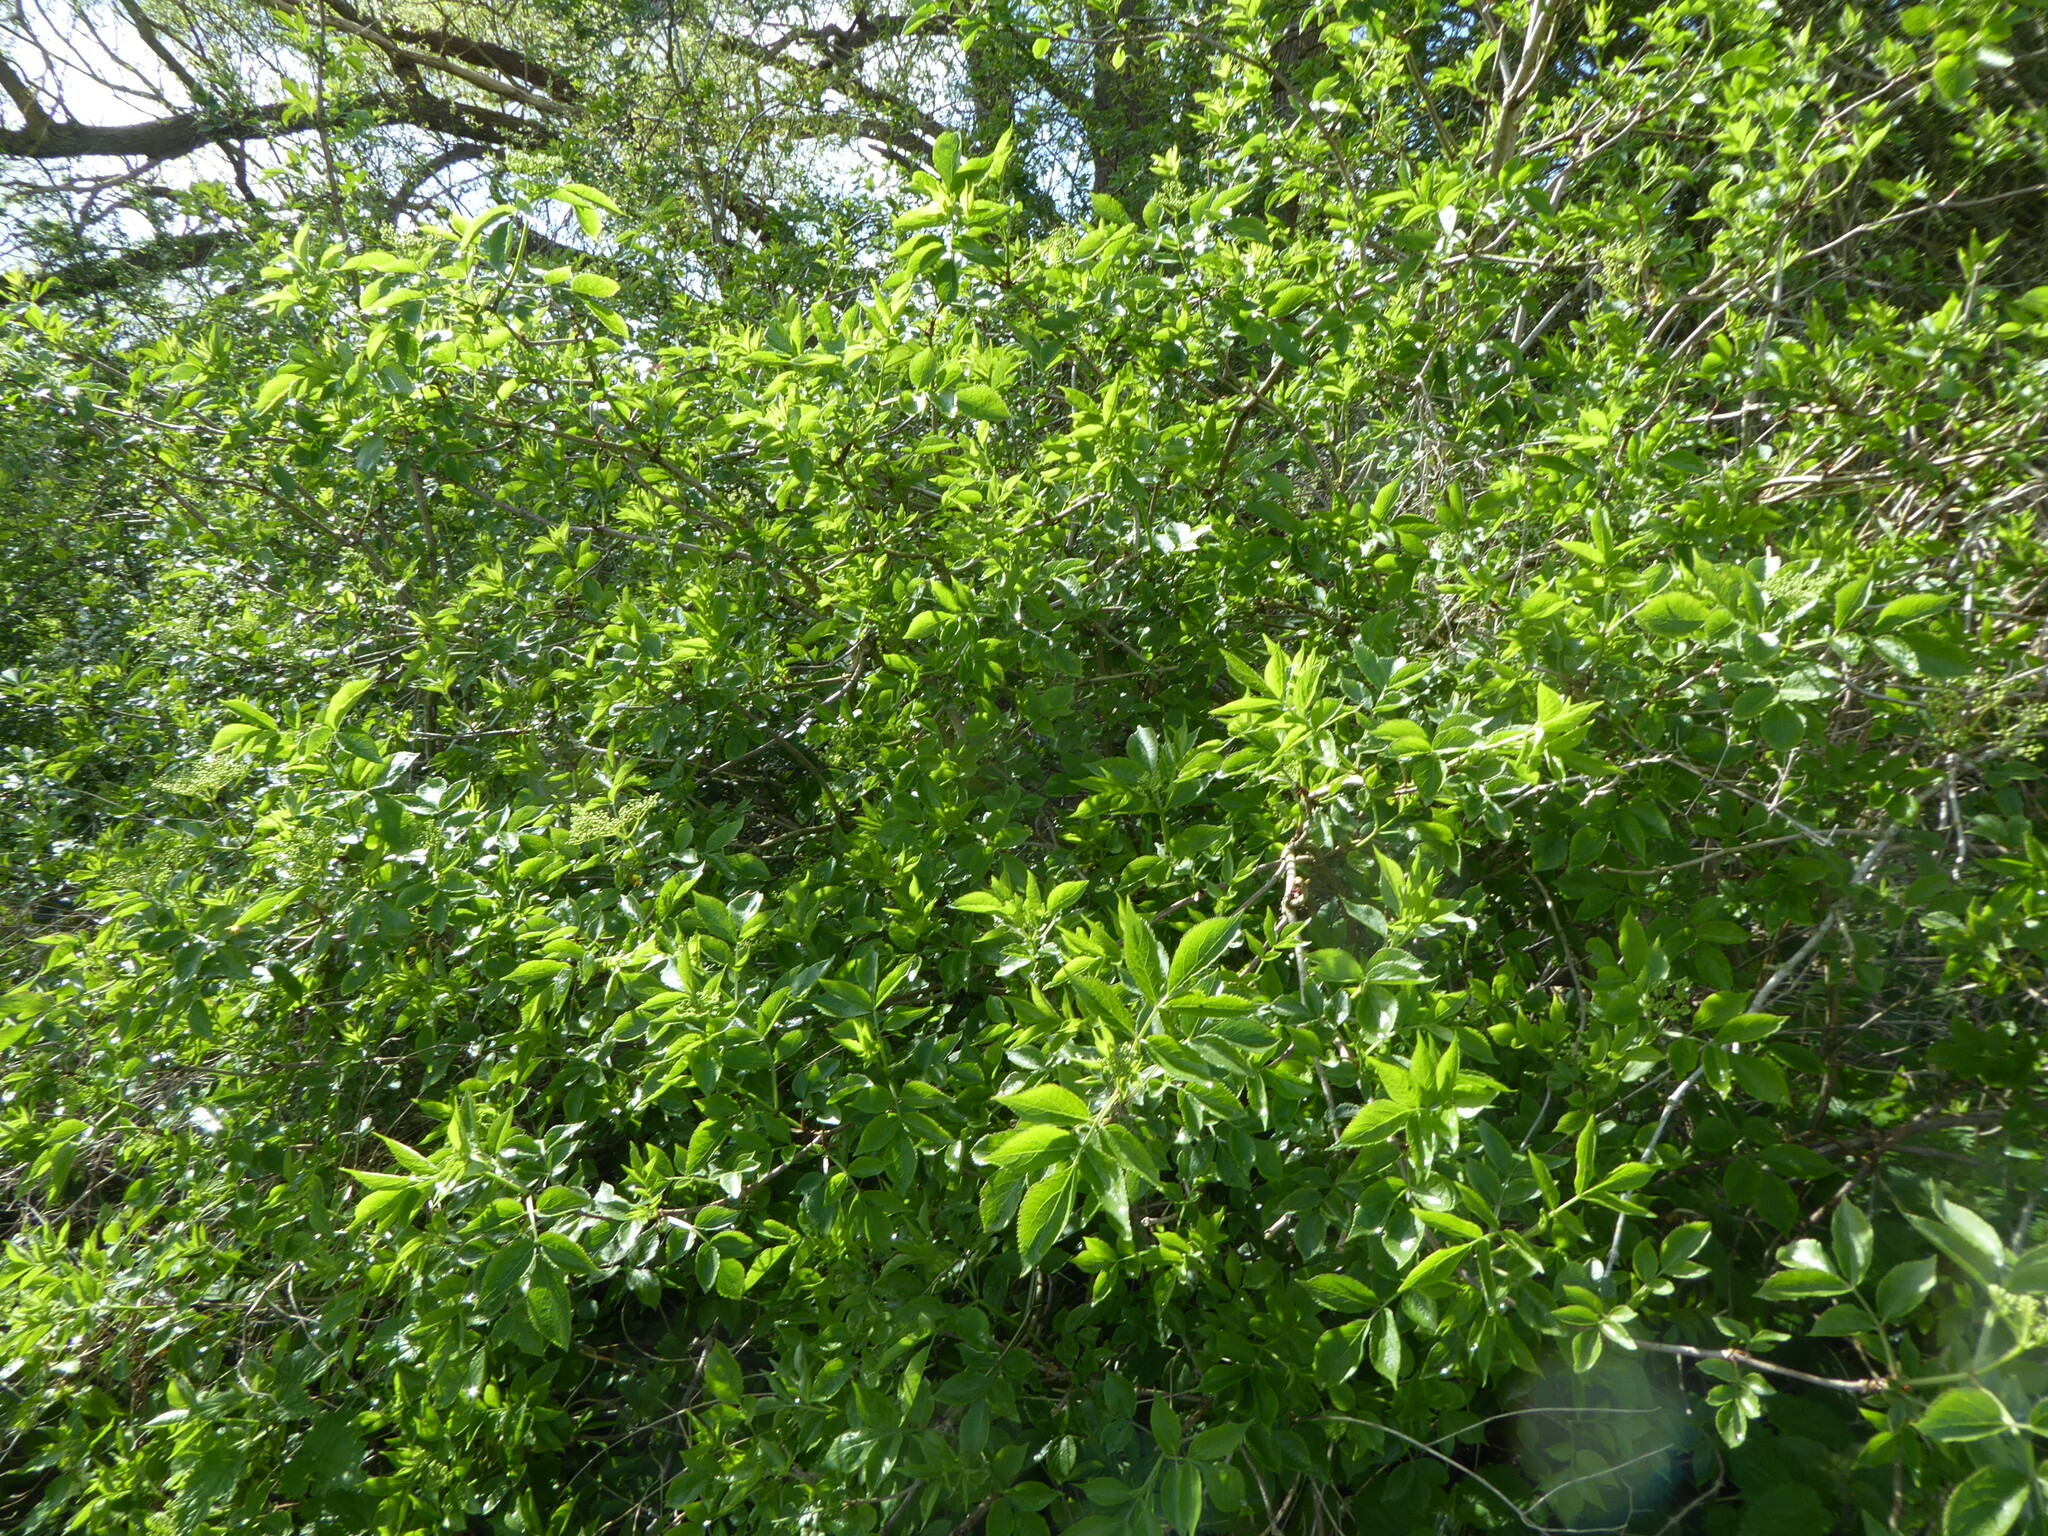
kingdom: Plantae
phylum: Tracheophyta
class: Magnoliopsida
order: Dipsacales
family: Viburnaceae
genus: Sambucus
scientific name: Sambucus nigra
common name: Elder
